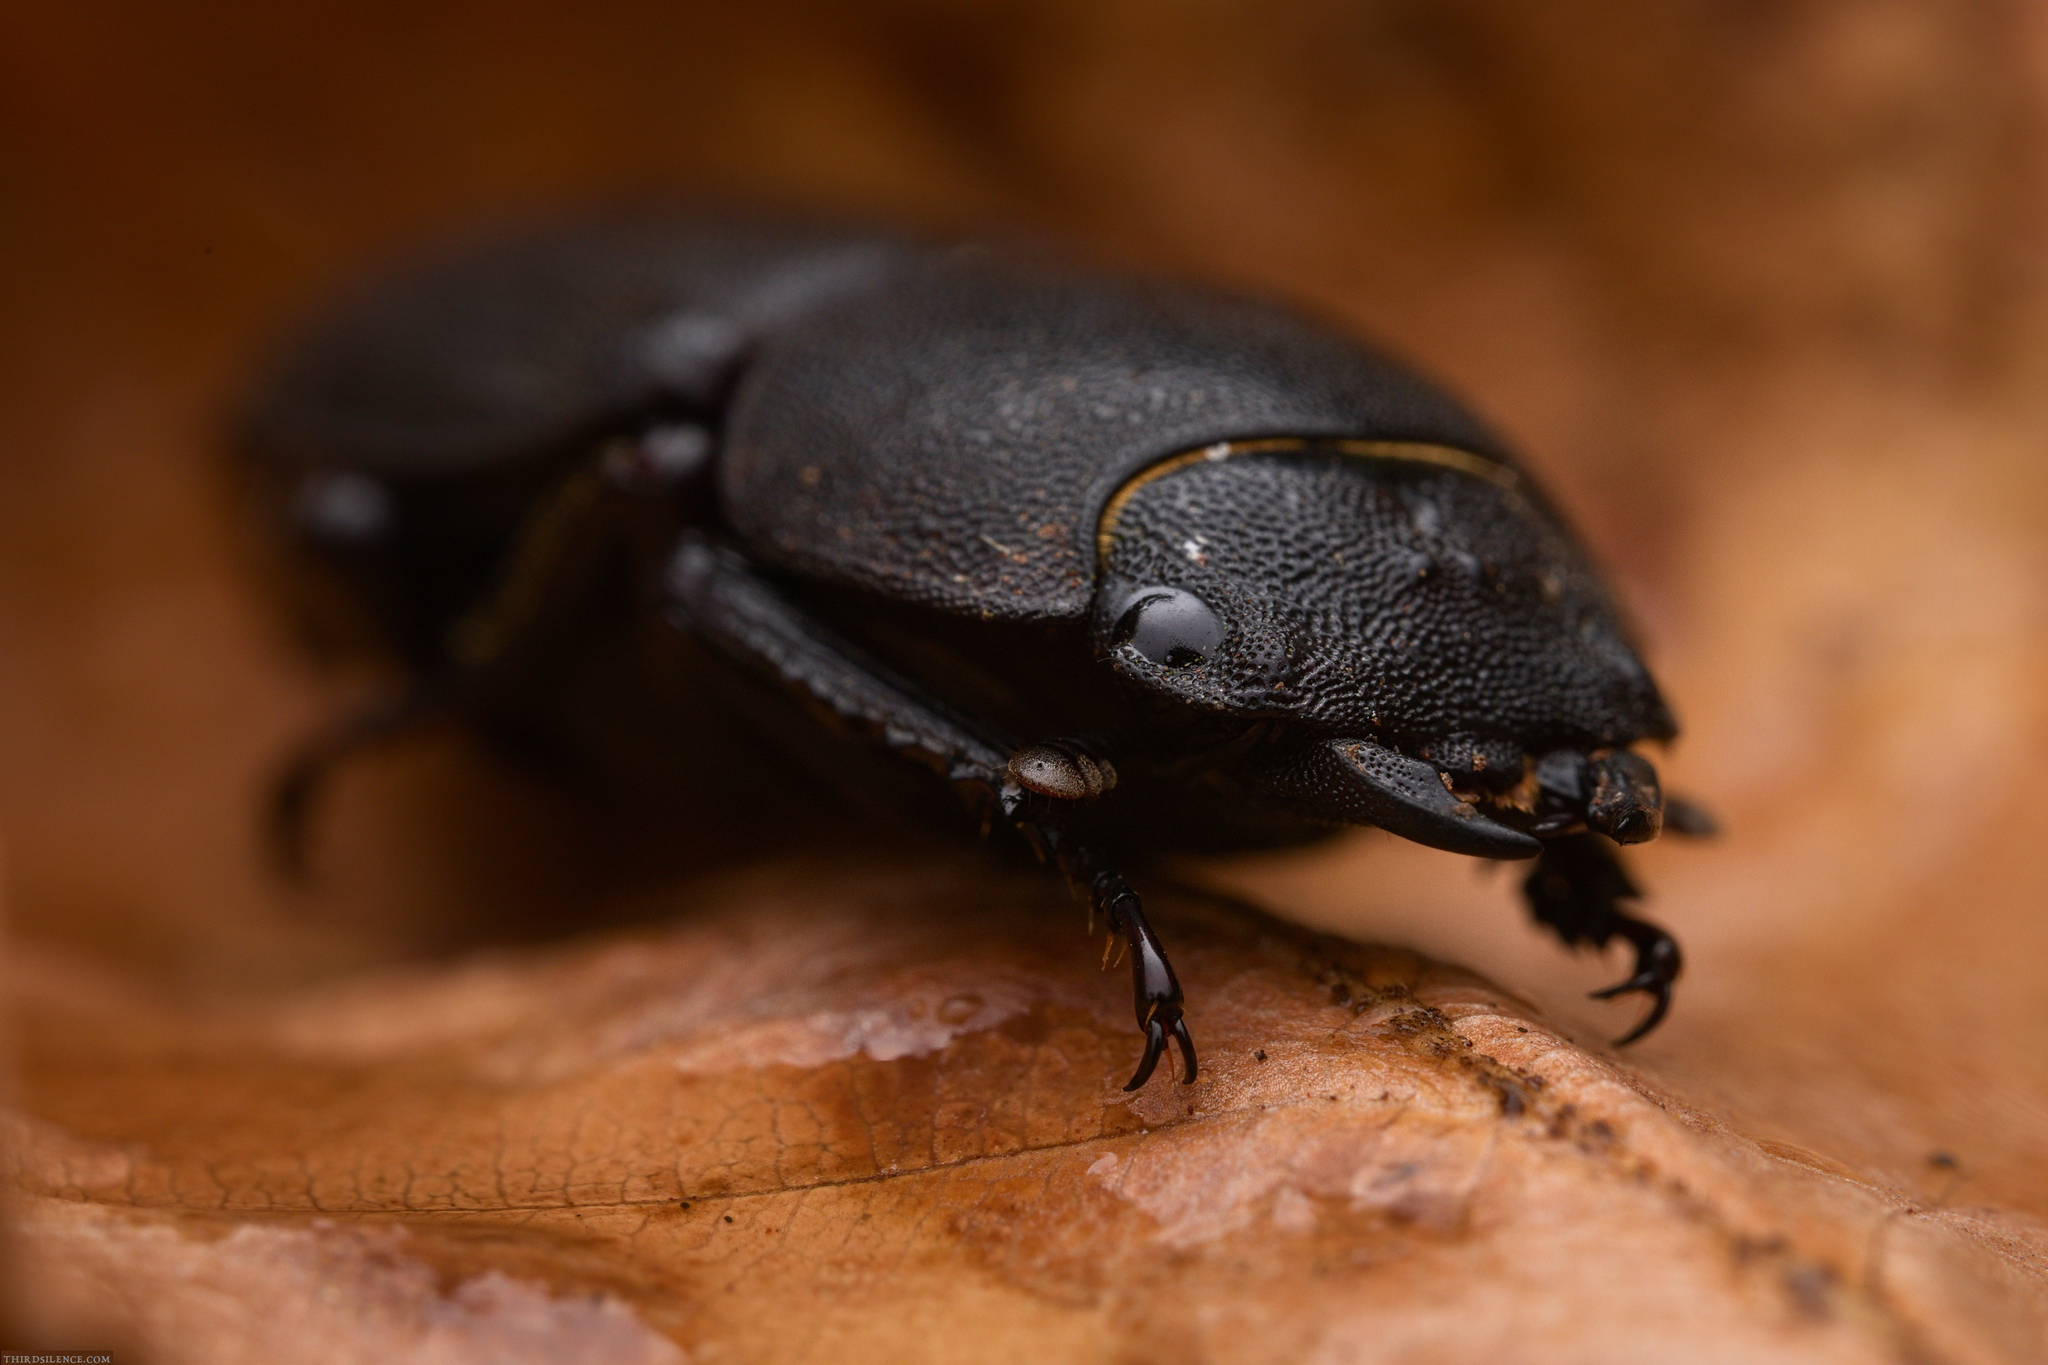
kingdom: Animalia
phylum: Arthropoda
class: Insecta
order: Coleoptera
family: Lucanidae
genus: Dorcus
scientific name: Dorcus parallelipipedus
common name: Lesser stag beetle
